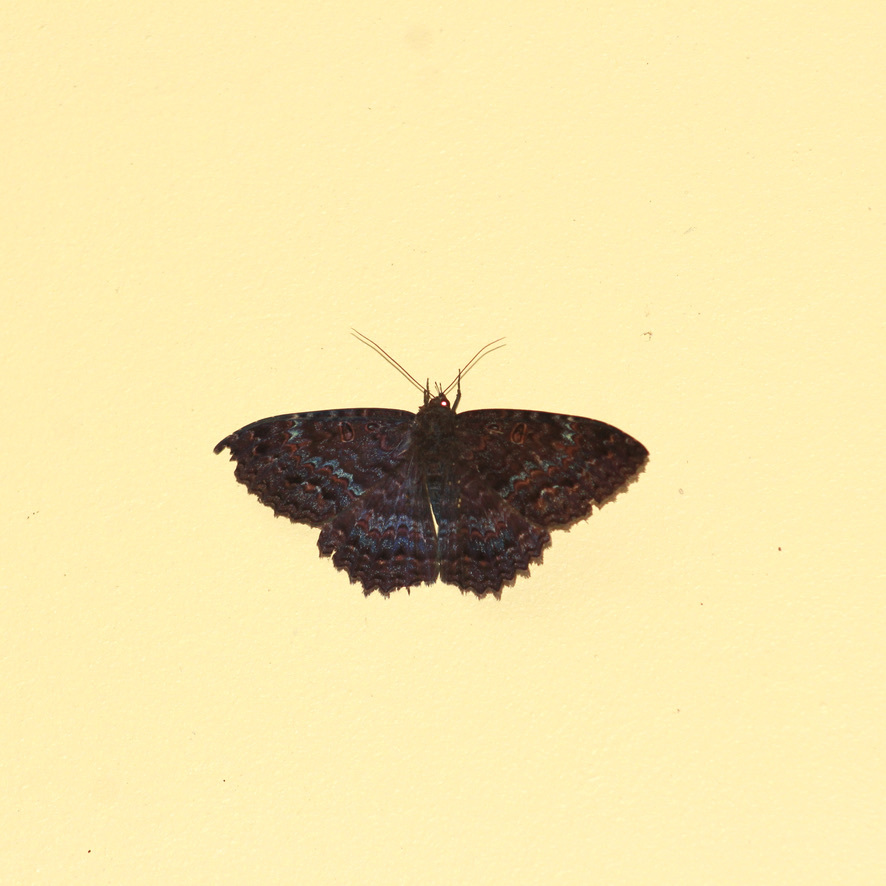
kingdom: Animalia
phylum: Arthropoda
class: Insecta
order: Lepidoptera
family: Erebidae
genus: Letis
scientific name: Letis iphianasse
